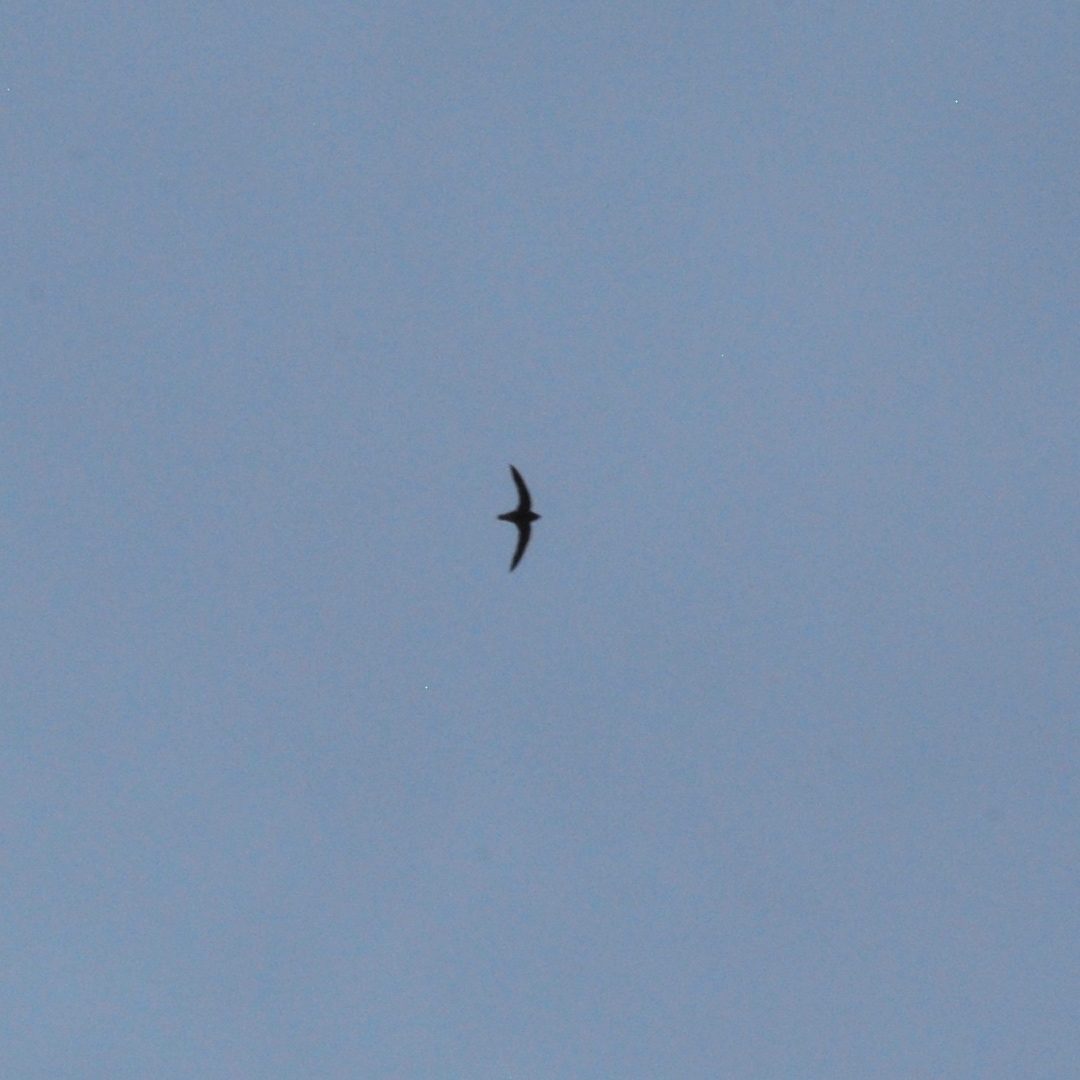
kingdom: Animalia
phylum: Chordata
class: Aves
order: Apodiformes
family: Apodidae
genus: Hirundapus
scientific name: Hirundapus caudacutus
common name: White-throated needletail
